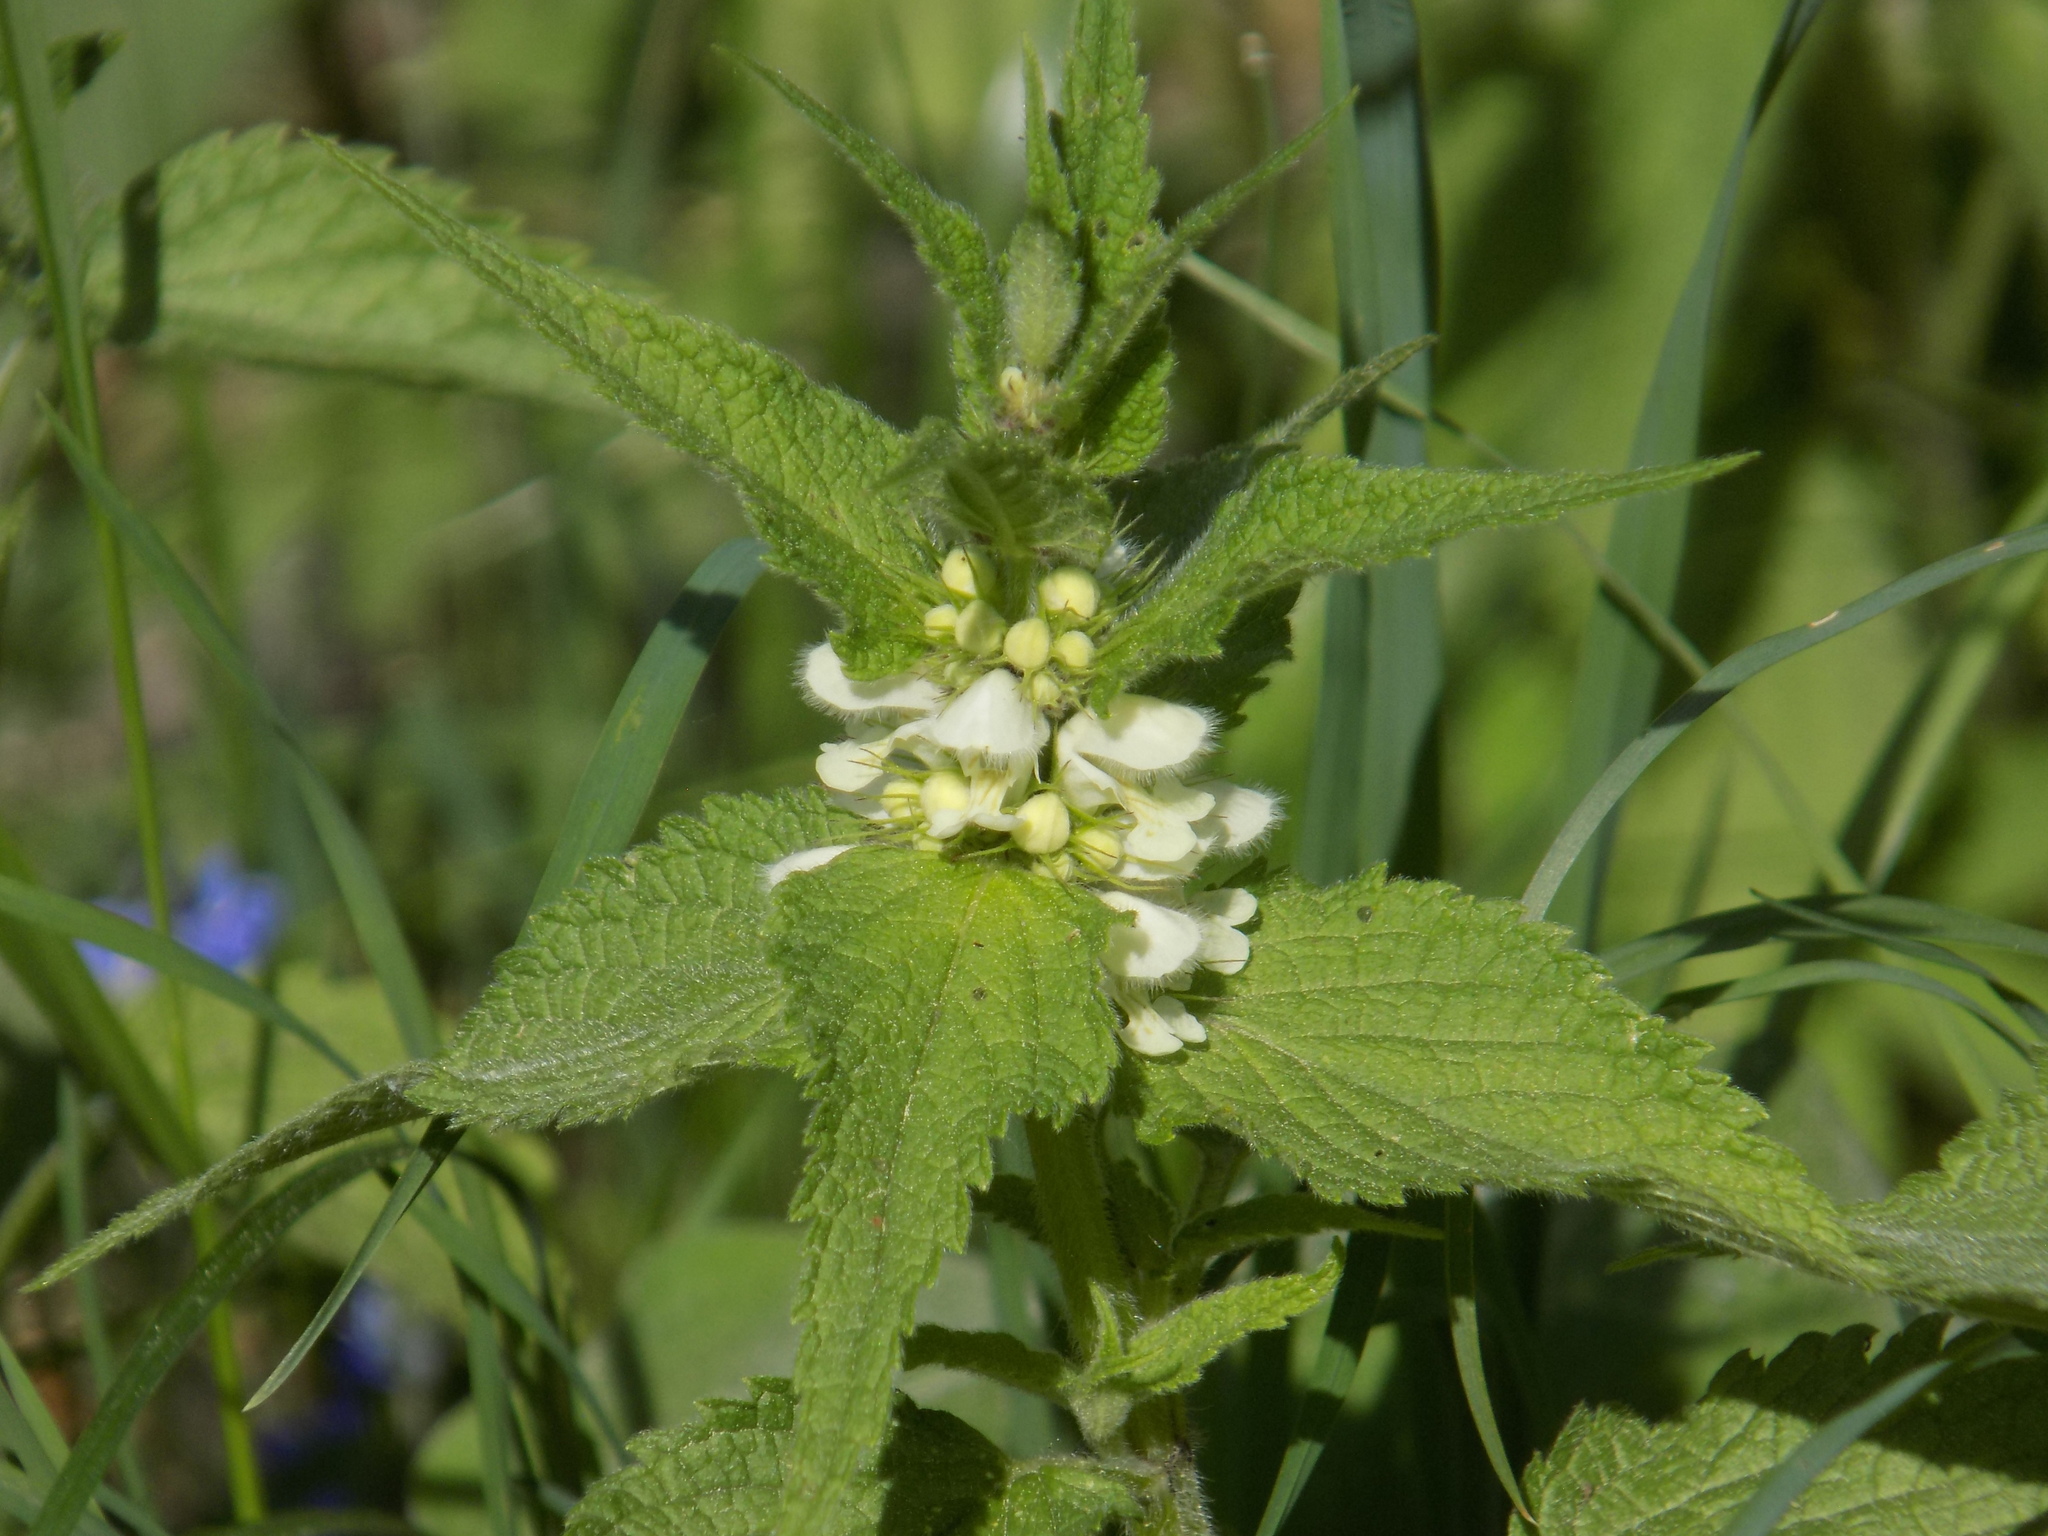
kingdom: Plantae
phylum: Tracheophyta
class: Magnoliopsida
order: Lamiales
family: Lamiaceae
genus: Lamium
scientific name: Lamium album
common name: White dead-nettle
